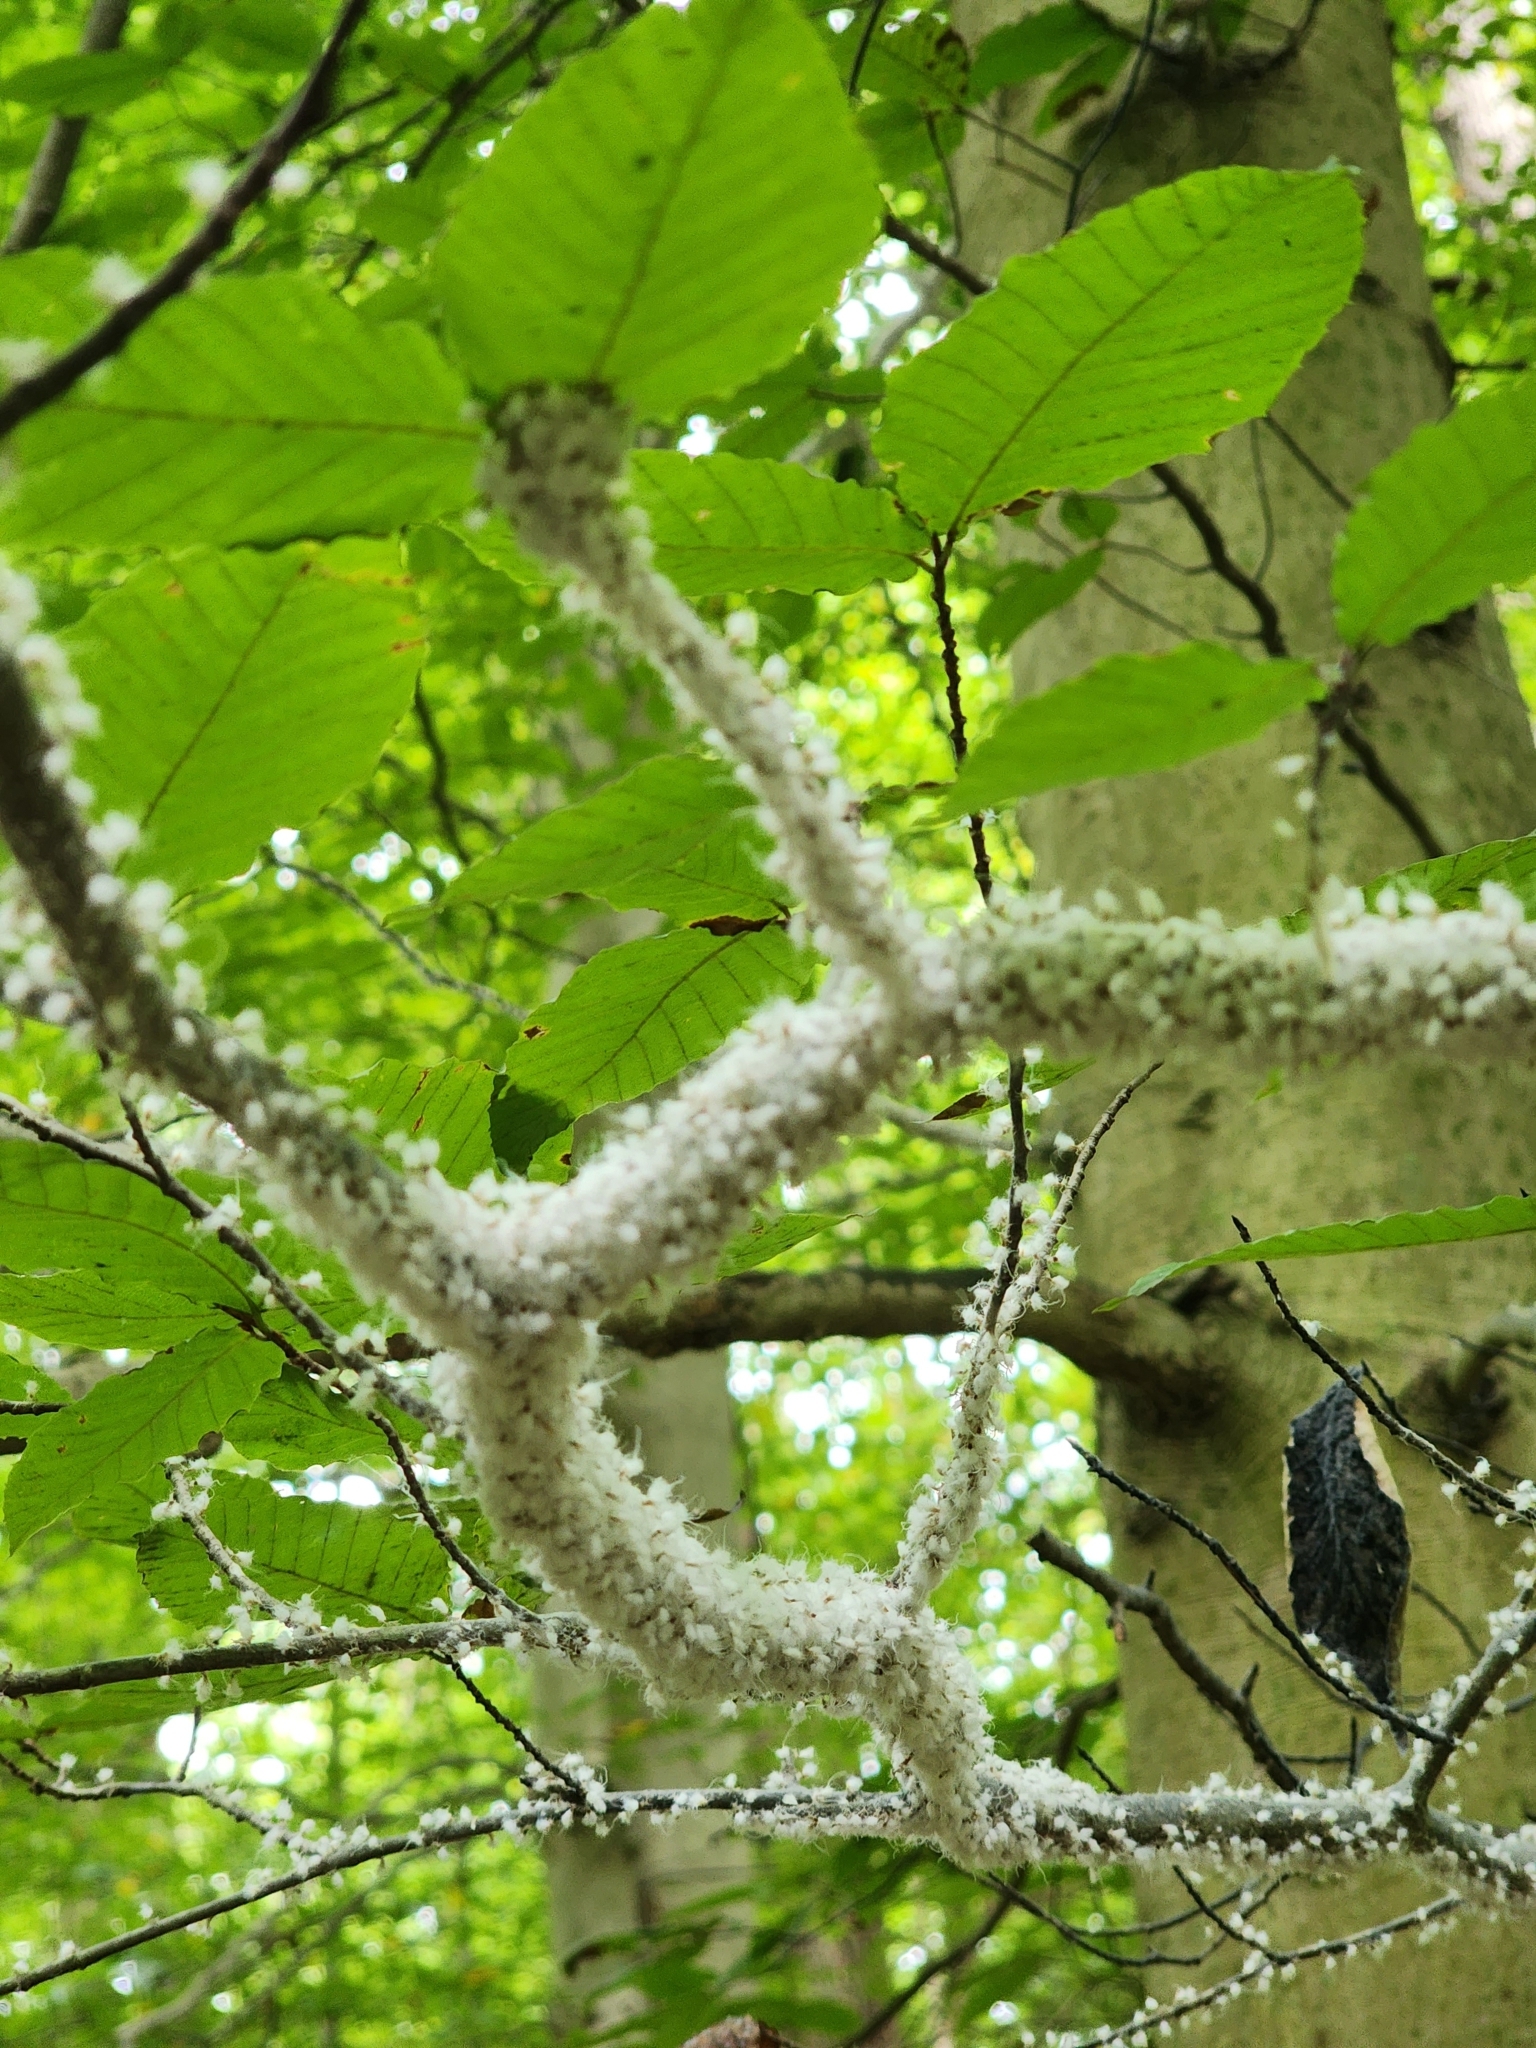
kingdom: Animalia
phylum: Arthropoda
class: Insecta
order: Hemiptera
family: Aphididae
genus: Grylloprociphilus
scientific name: Grylloprociphilus imbricator
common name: Beech blight aphid
